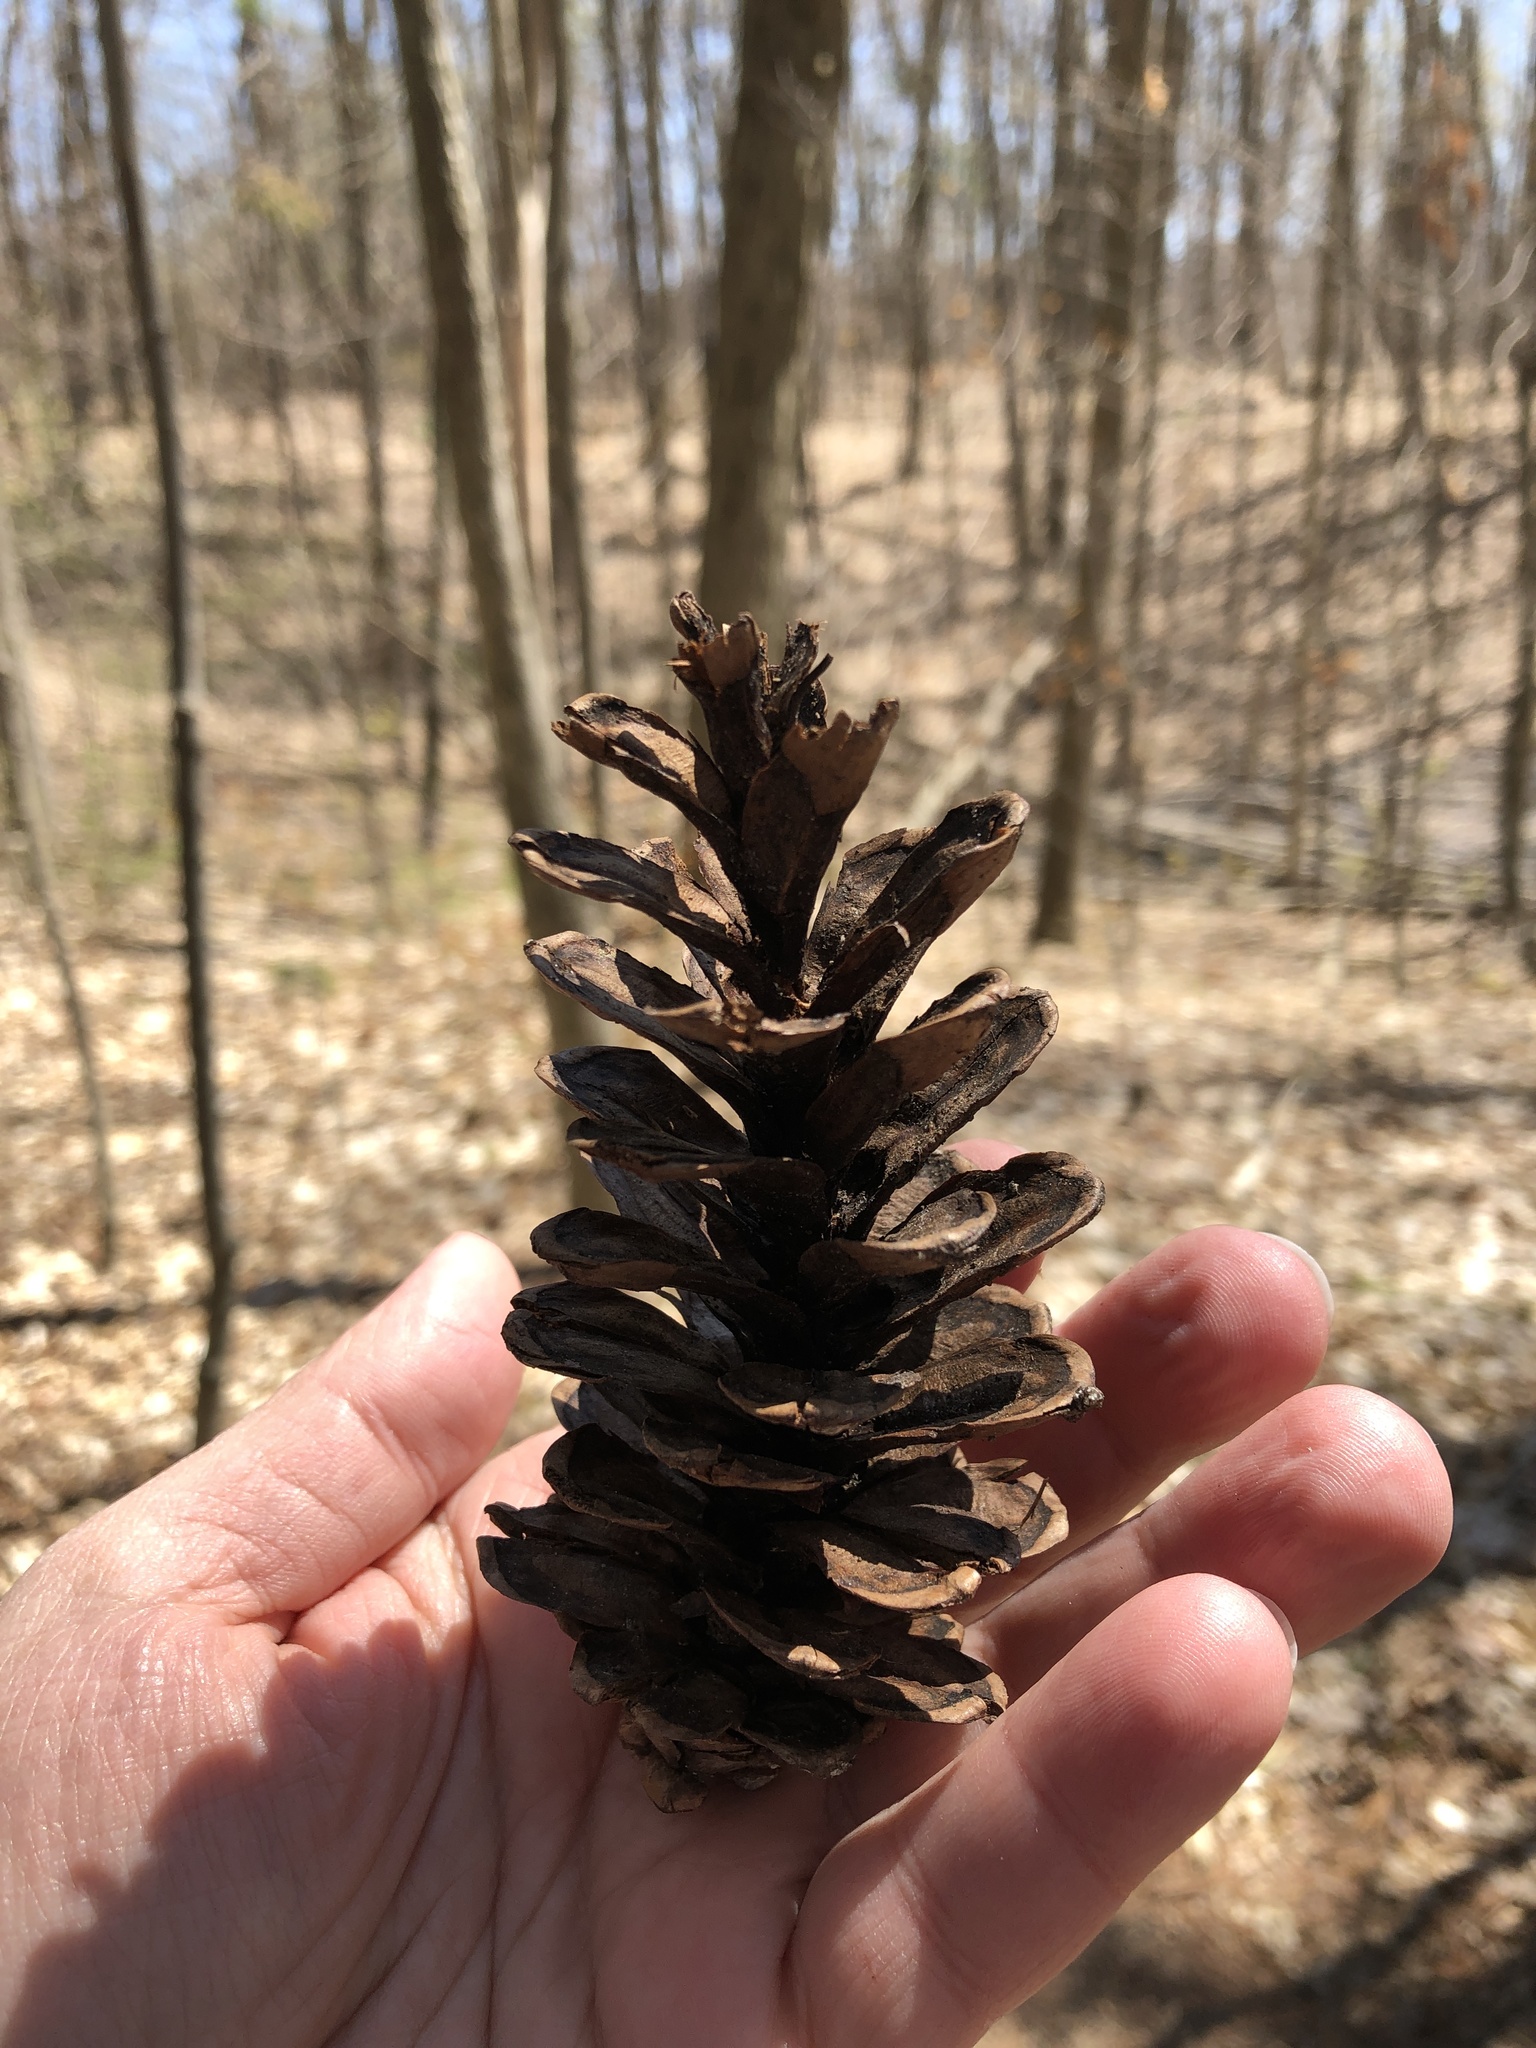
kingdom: Plantae
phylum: Tracheophyta
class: Pinopsida
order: Pinales
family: Pinaceae
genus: Pinus
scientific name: Pinus strobus
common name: Weymouth pine
